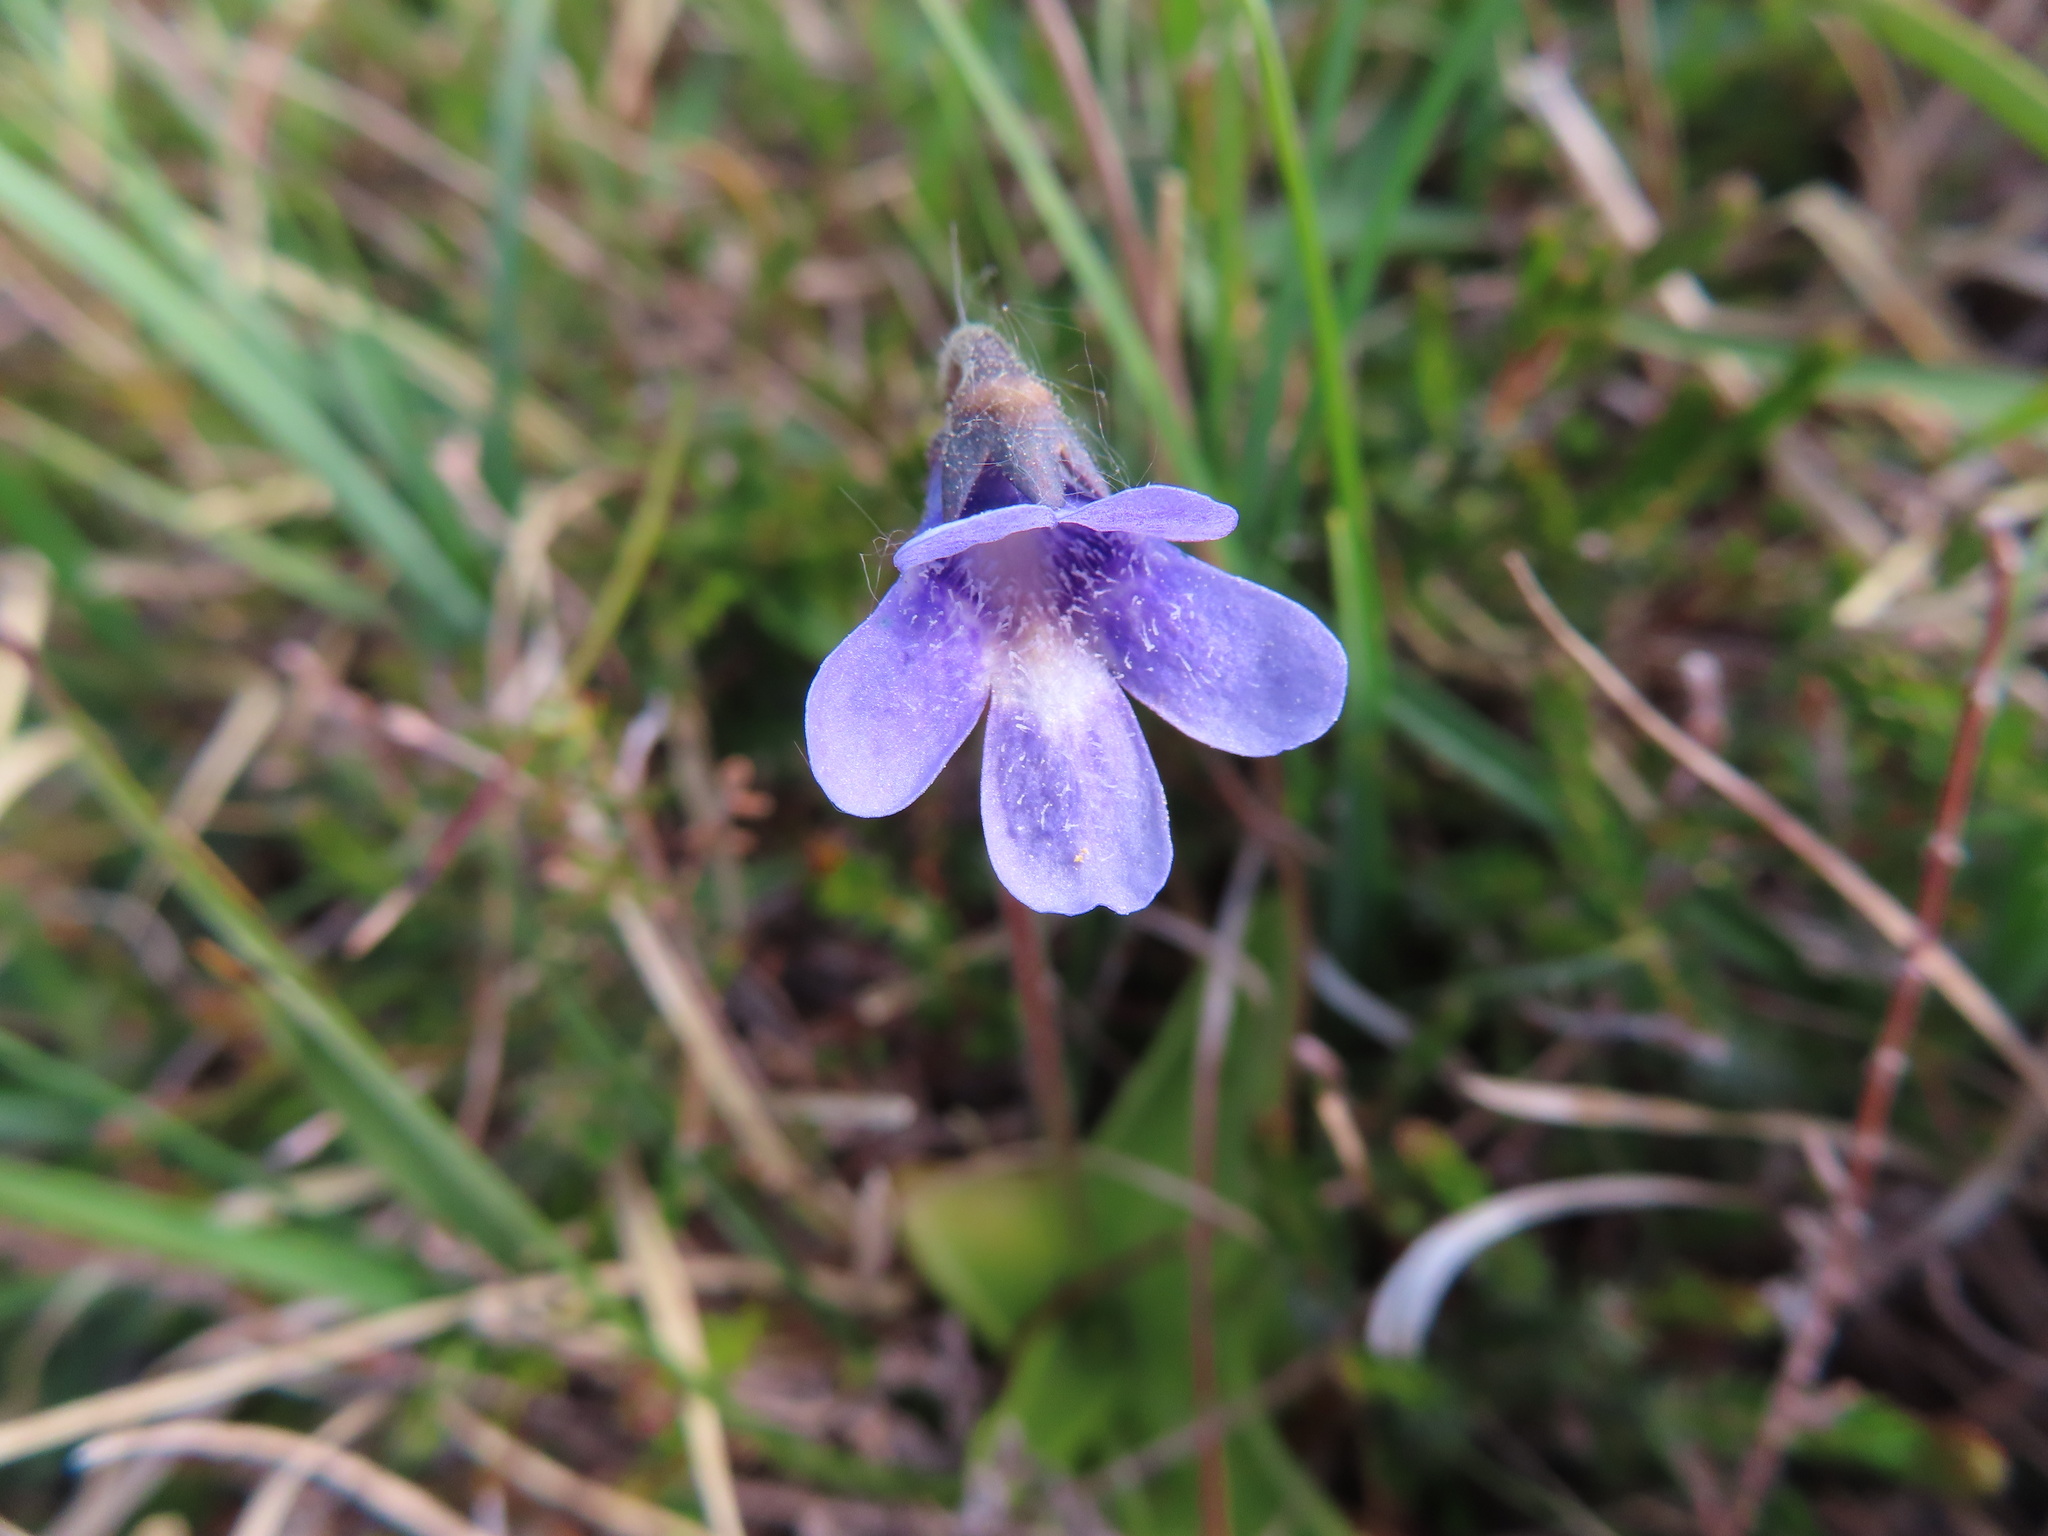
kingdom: Plantae
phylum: Tracheophyta
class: Magnoliopsida
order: Lamiales
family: Lentibulariaceae
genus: Pinguicula
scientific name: Pinguicula vulgaris
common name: Common butterwort
